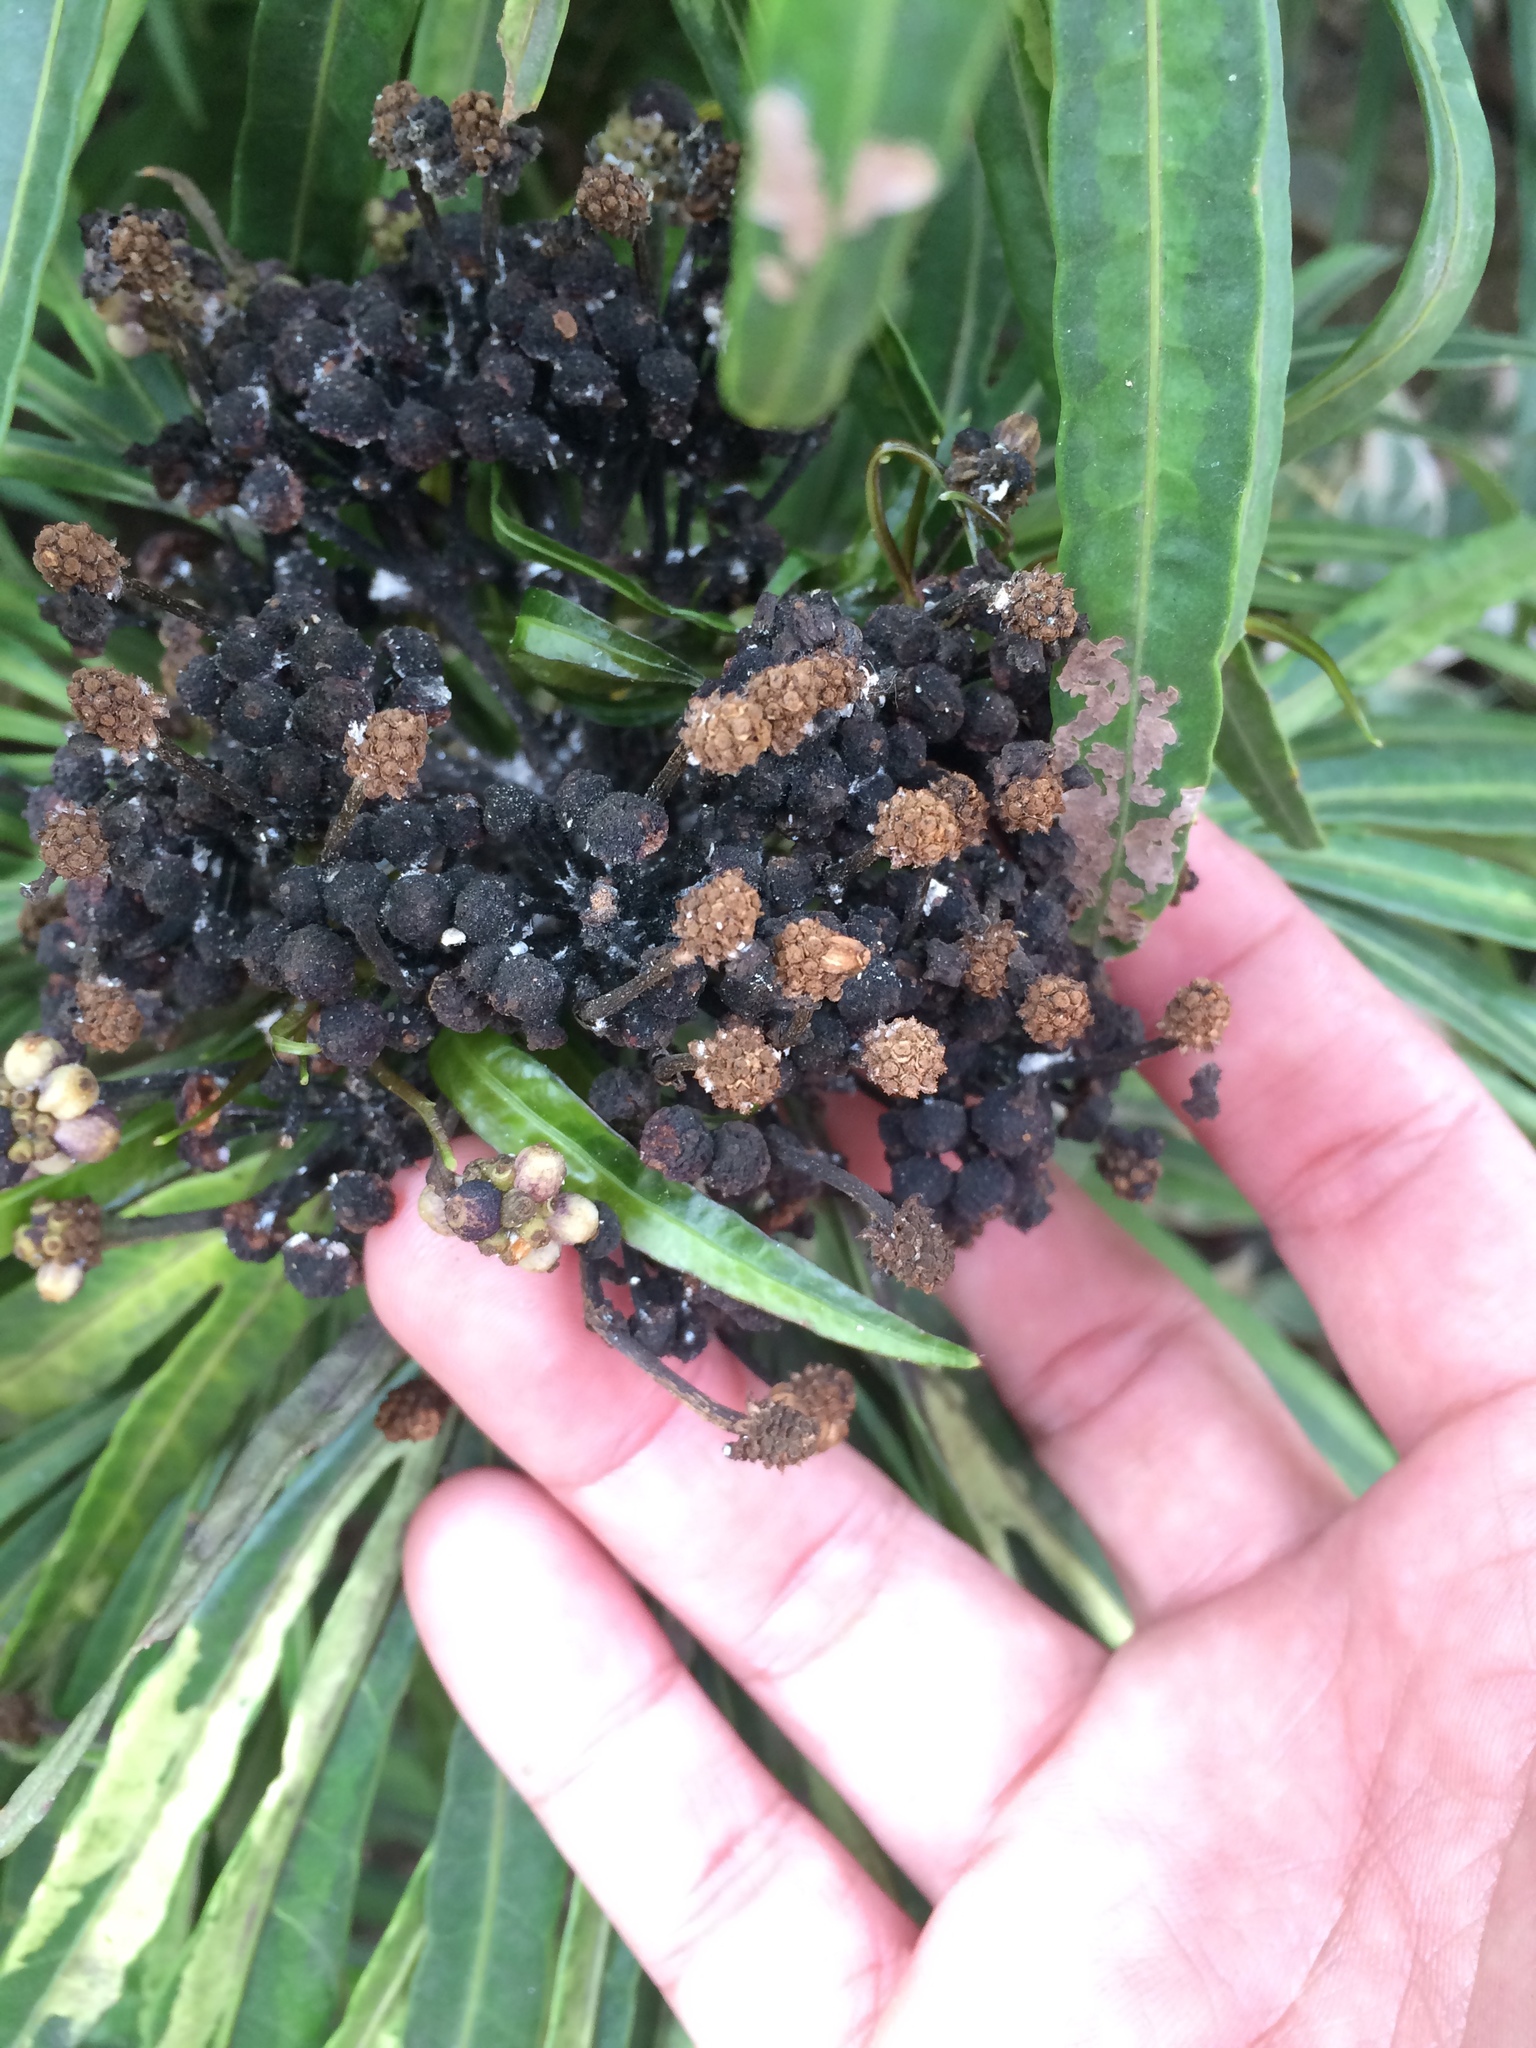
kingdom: Plantae
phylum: Tracheophyta
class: Magnoliopsida
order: Apiales
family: Araliaceae
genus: Osmoxylon
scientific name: Osmoxylon lineare
